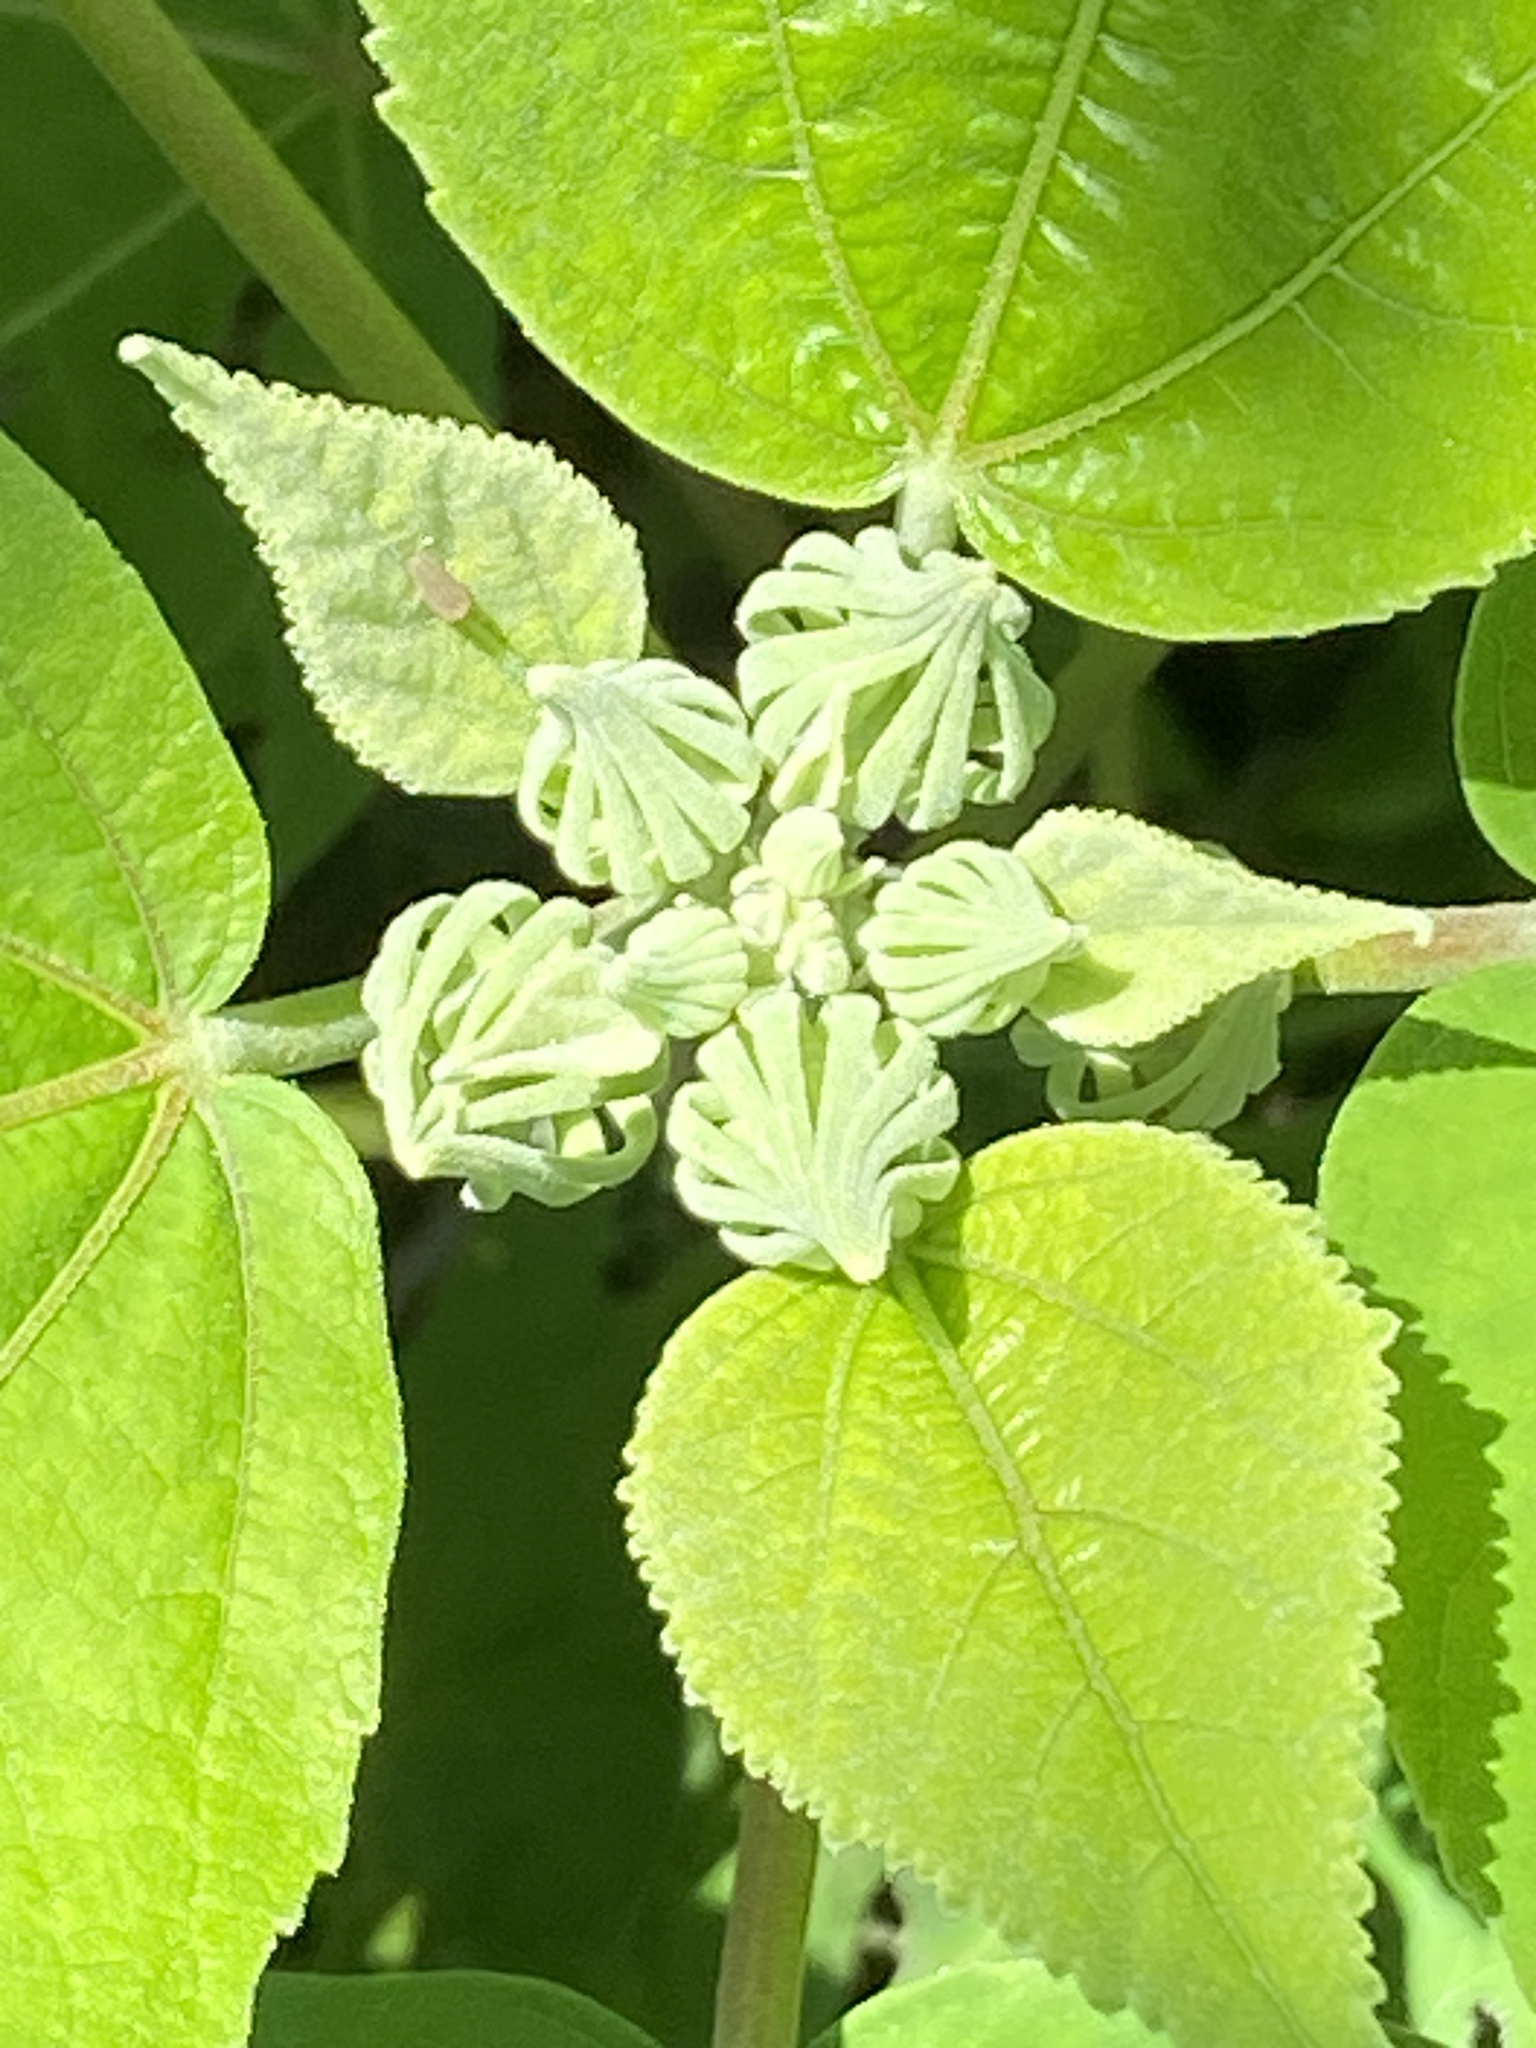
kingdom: Plantae
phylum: Tracheophyta
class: Magnoliopsida
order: Malvales
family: Malvaceae
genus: Hibiscus
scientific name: Hibiscus moscheutos
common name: Common rose-mallow
